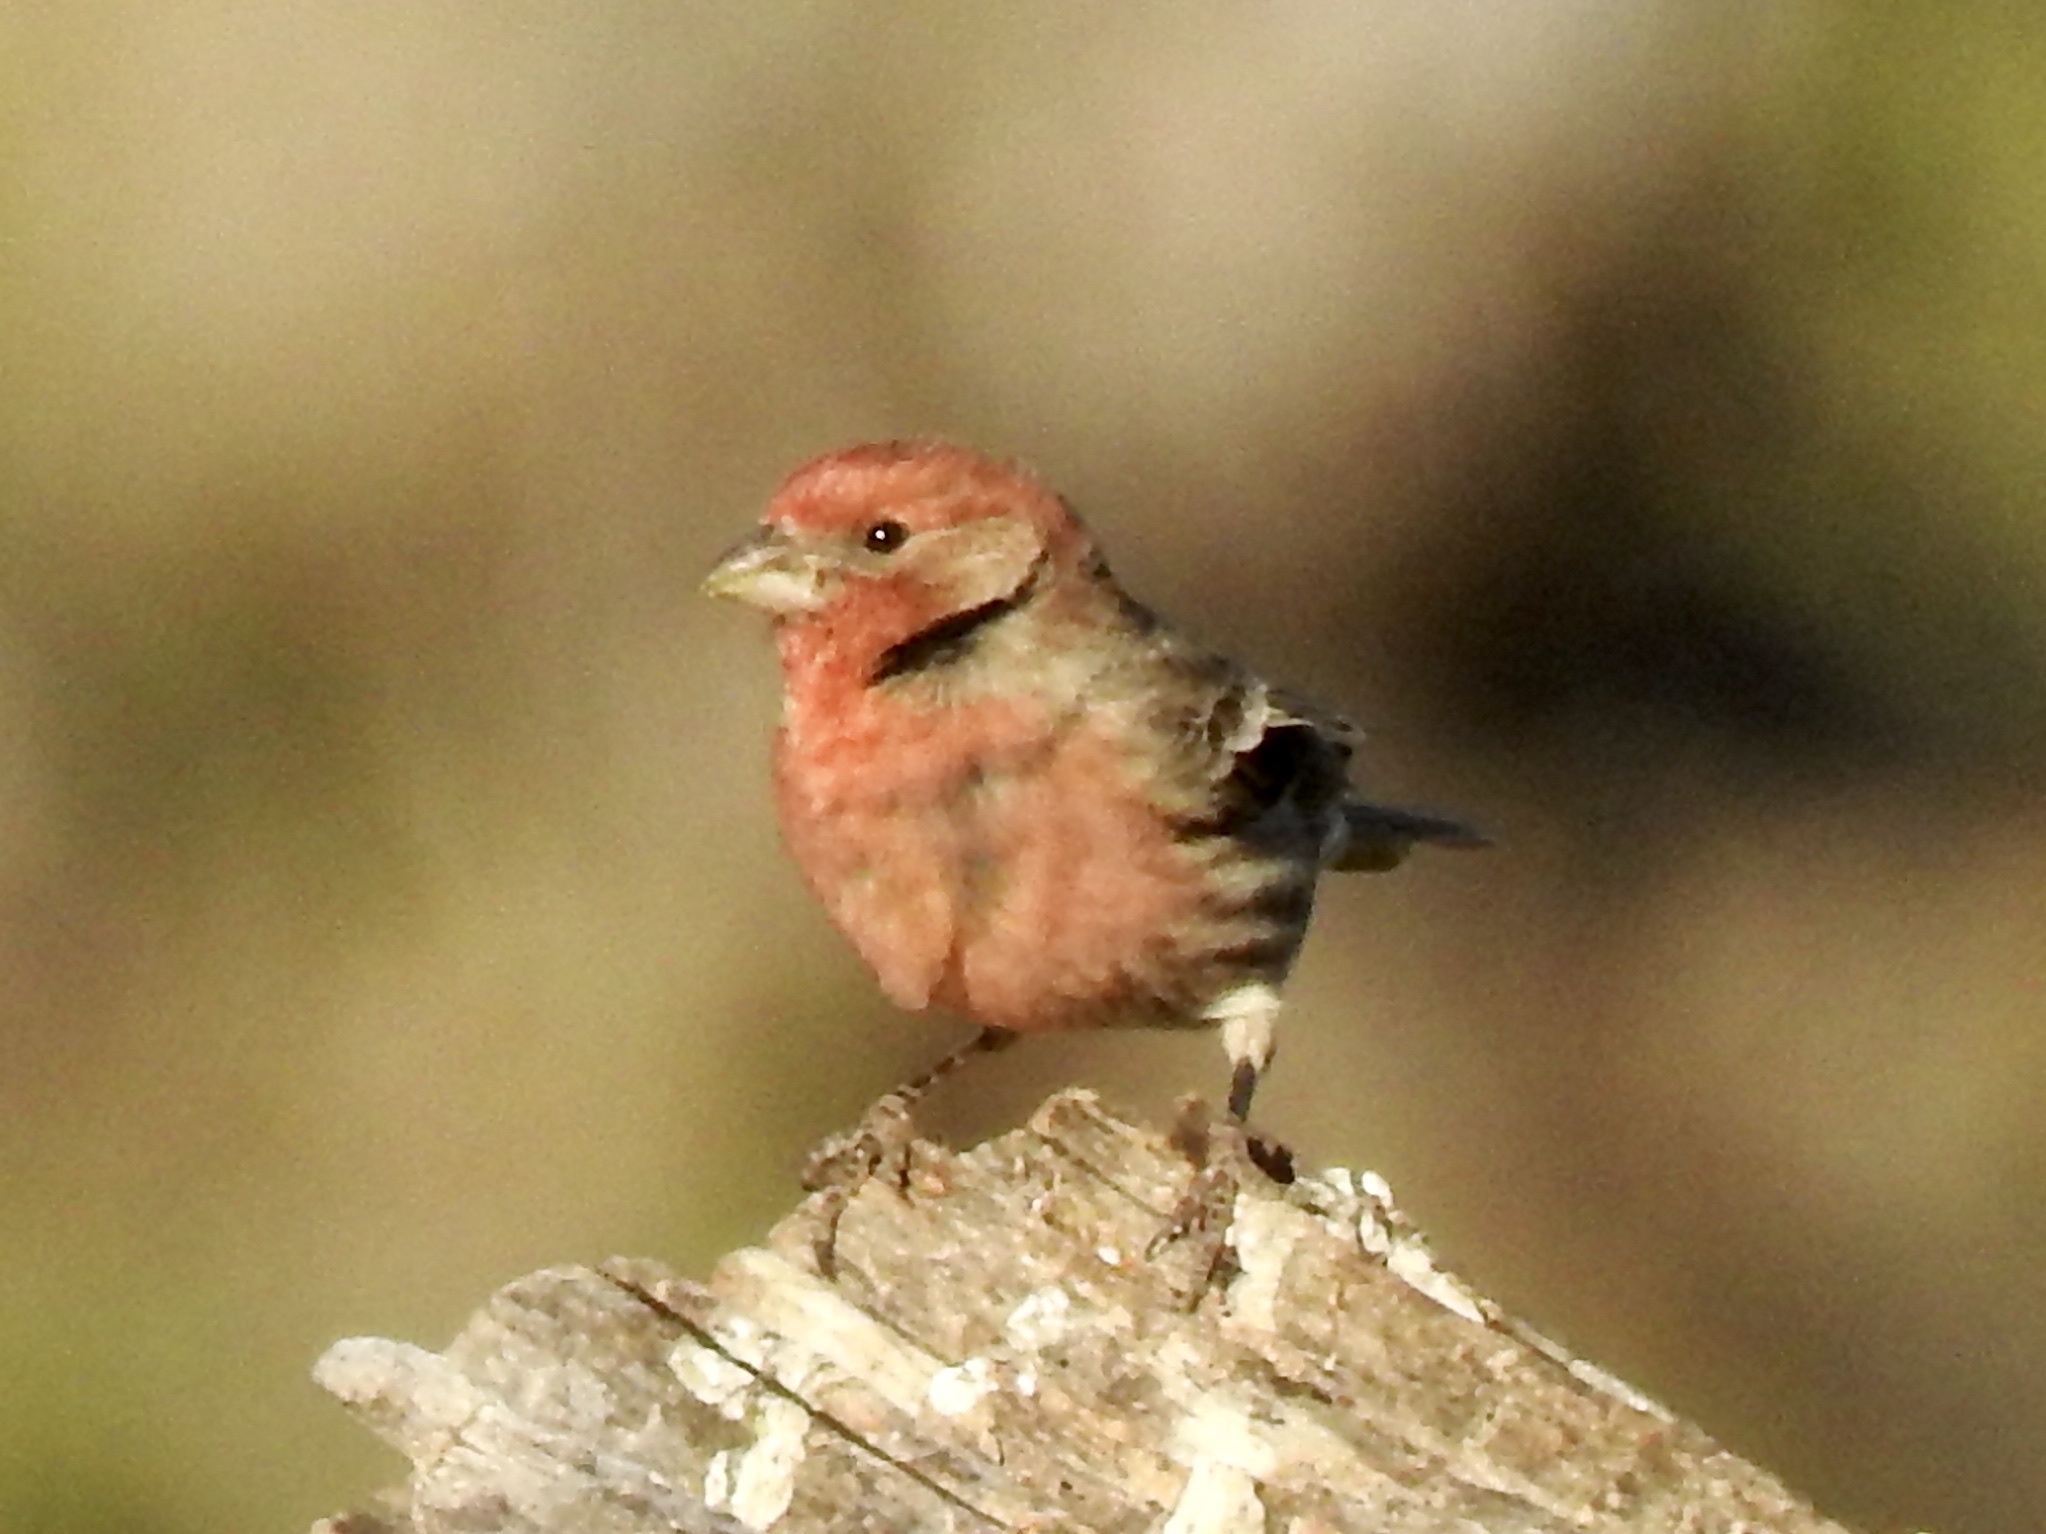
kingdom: Animalia
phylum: Chordata
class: Aves
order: Passeriformes
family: Fringillidae
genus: Haemorhous
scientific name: Haemorhous mexicanus
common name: House finch
